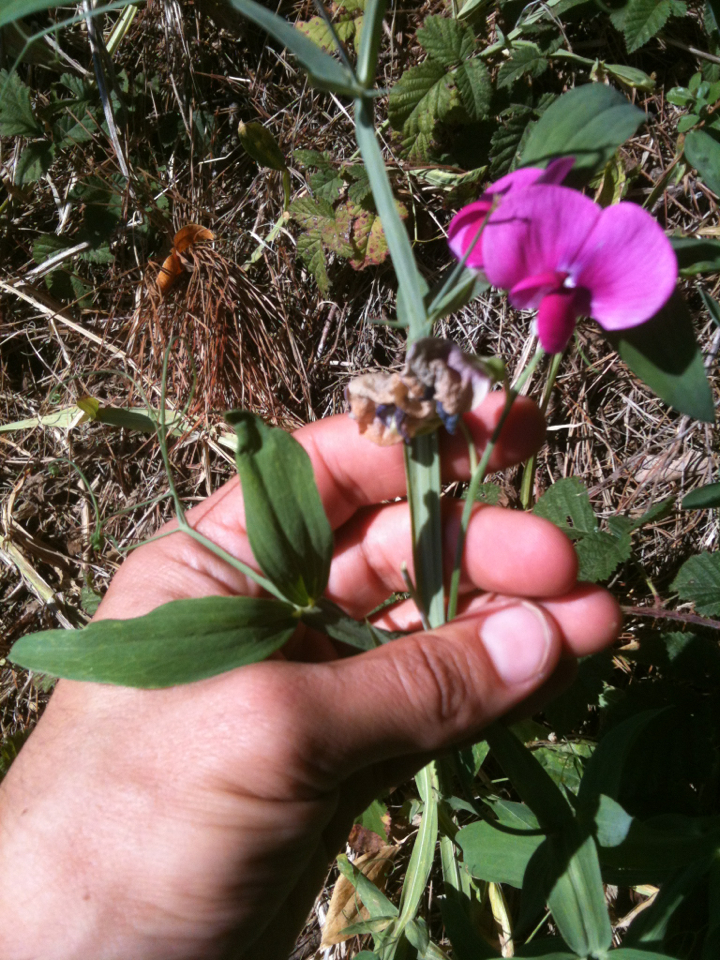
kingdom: Plantae
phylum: Tracheophyta
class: Magnoliopsida
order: Fabales
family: Fabaceae
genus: Lathyrus
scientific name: Lathyrus latifolius
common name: Perennial pea
